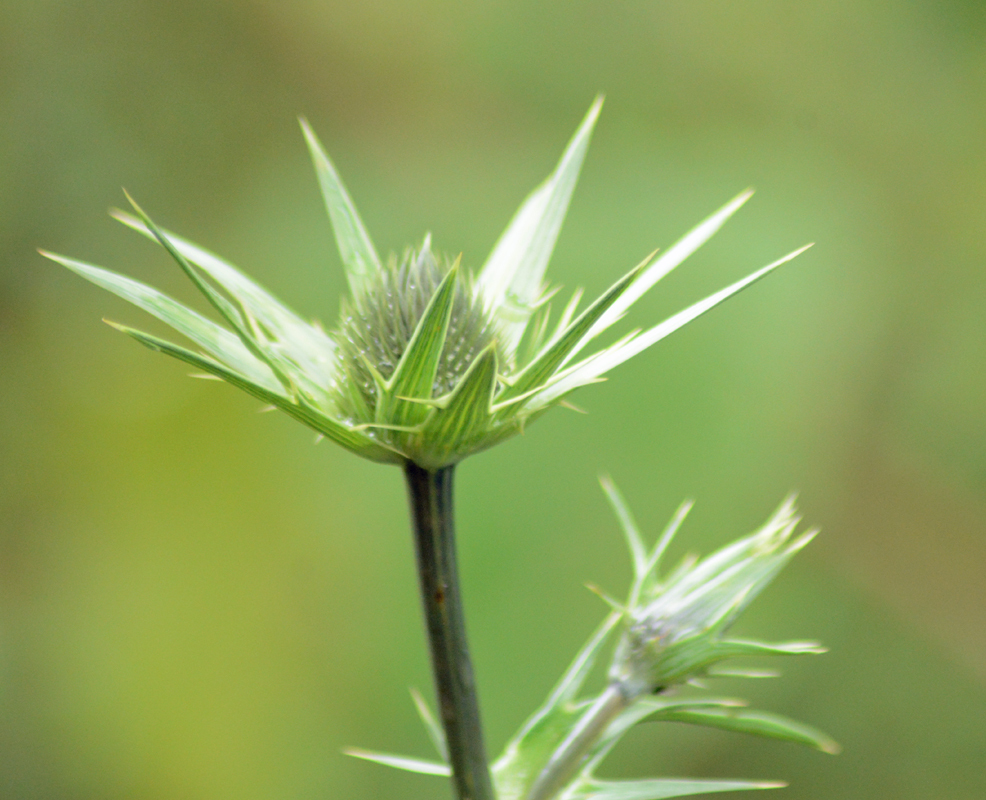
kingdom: Plantae
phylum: Tracheophyta
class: Magnoliopsida
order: Apiales
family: Apiaceae
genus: Eryngium
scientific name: Eryngium proteiflorum
